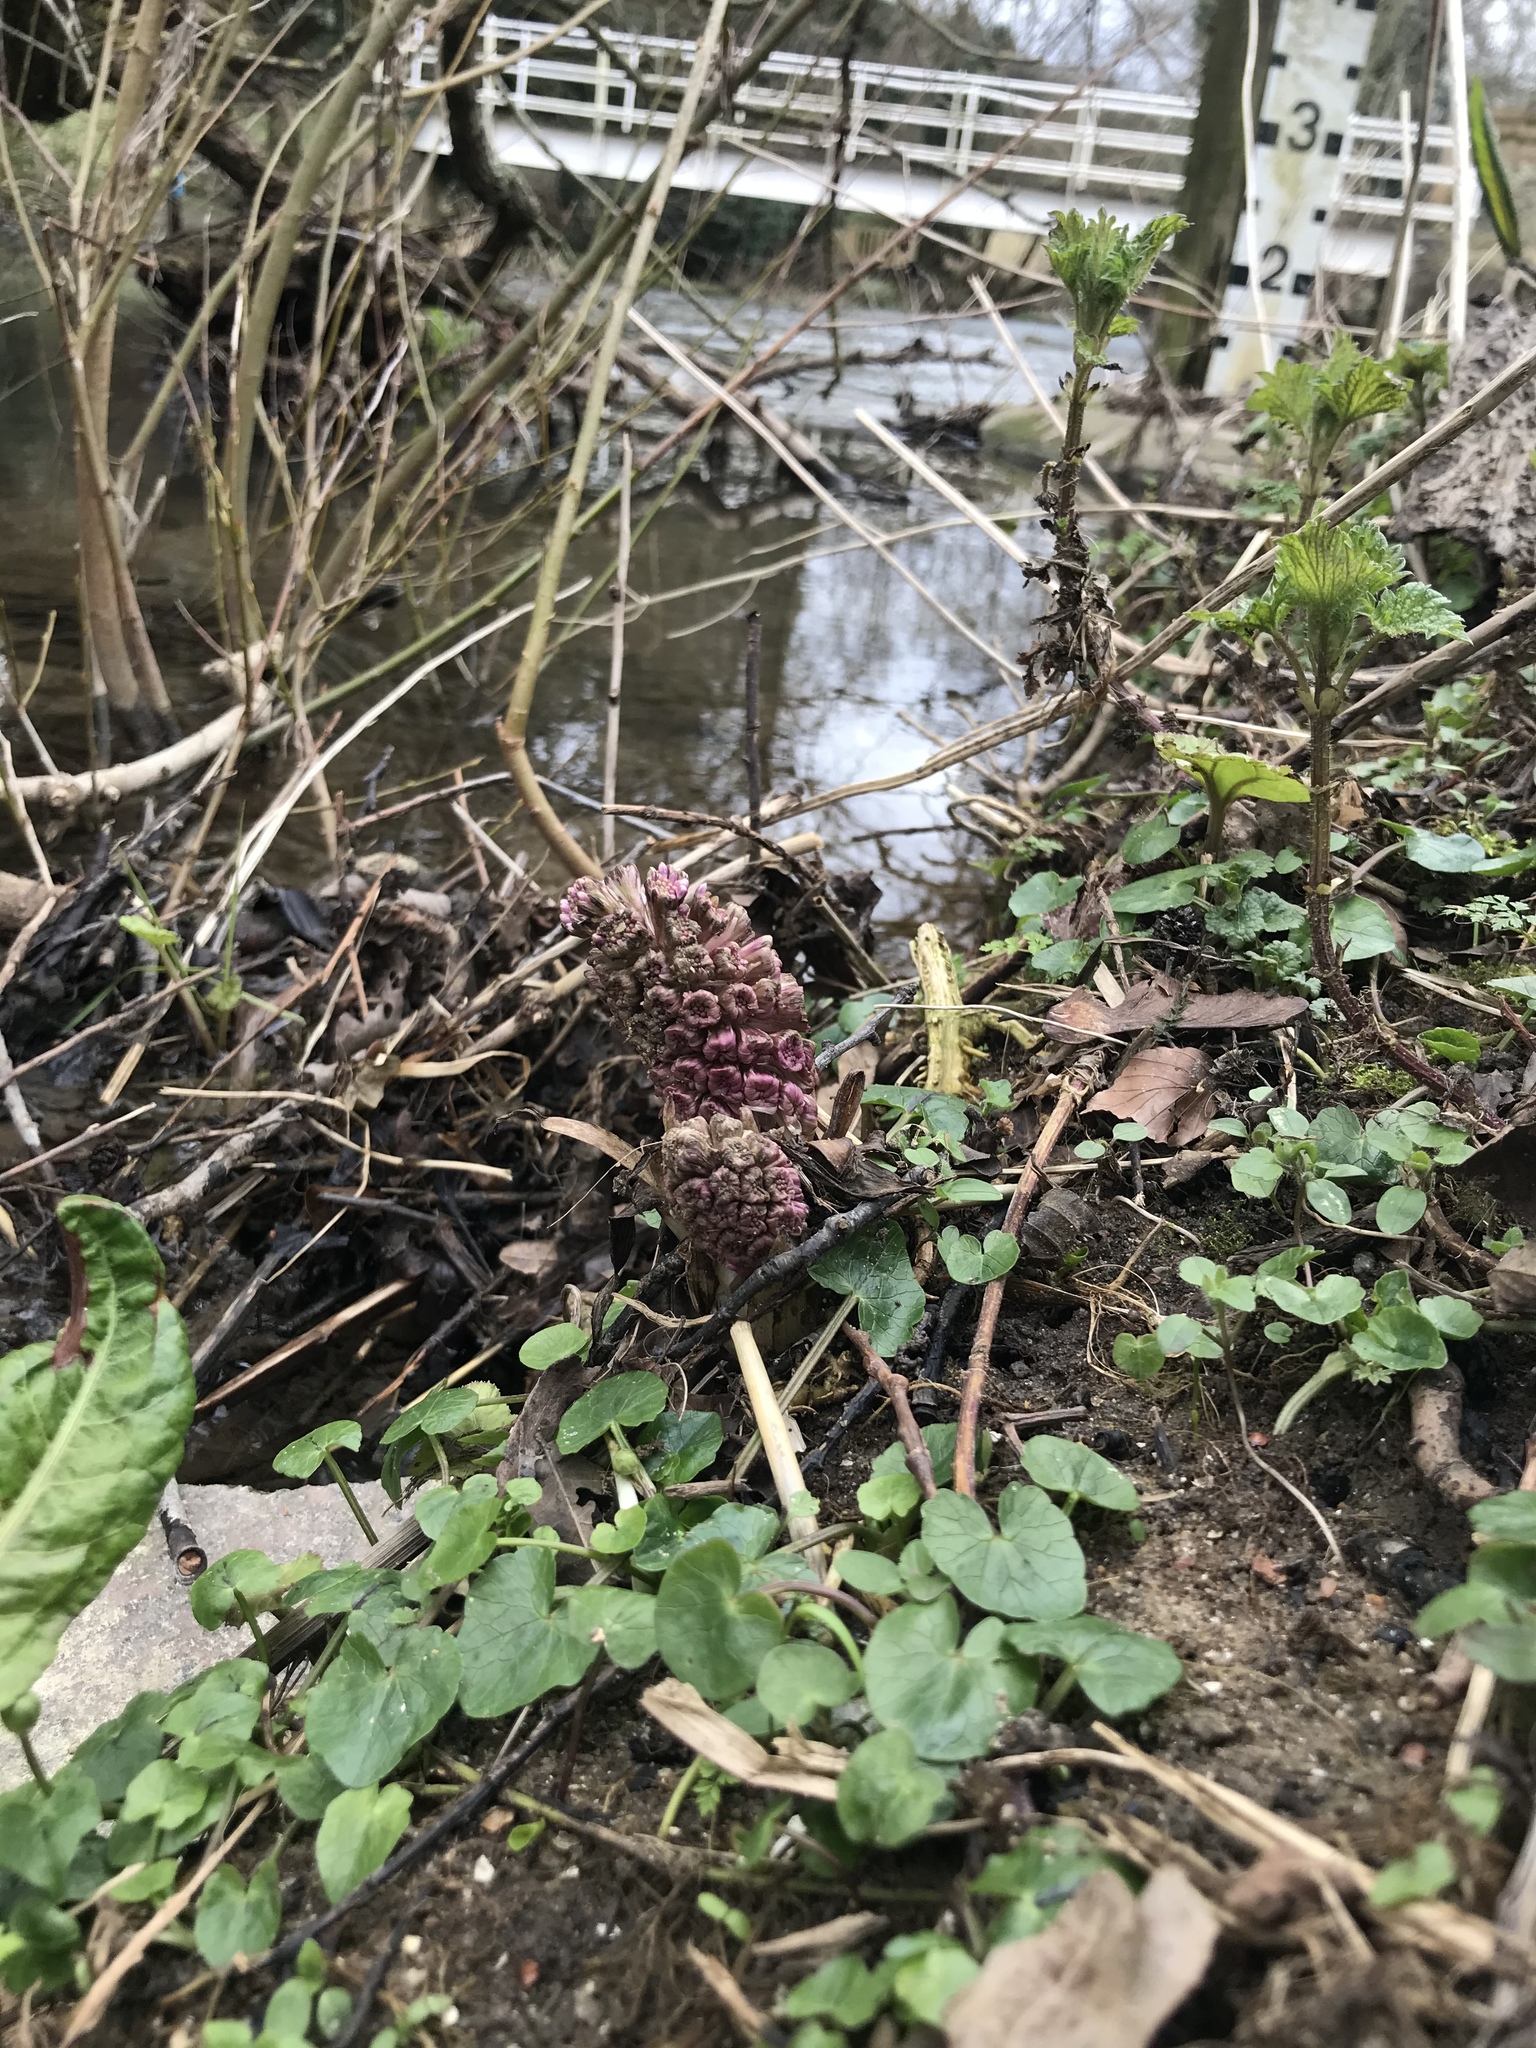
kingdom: Plantae
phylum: Tracheophyta
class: Magnoliopsida
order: Asterales
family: Asteraceae
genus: Petasites
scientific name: Petasites hybridus
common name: Butterbur
